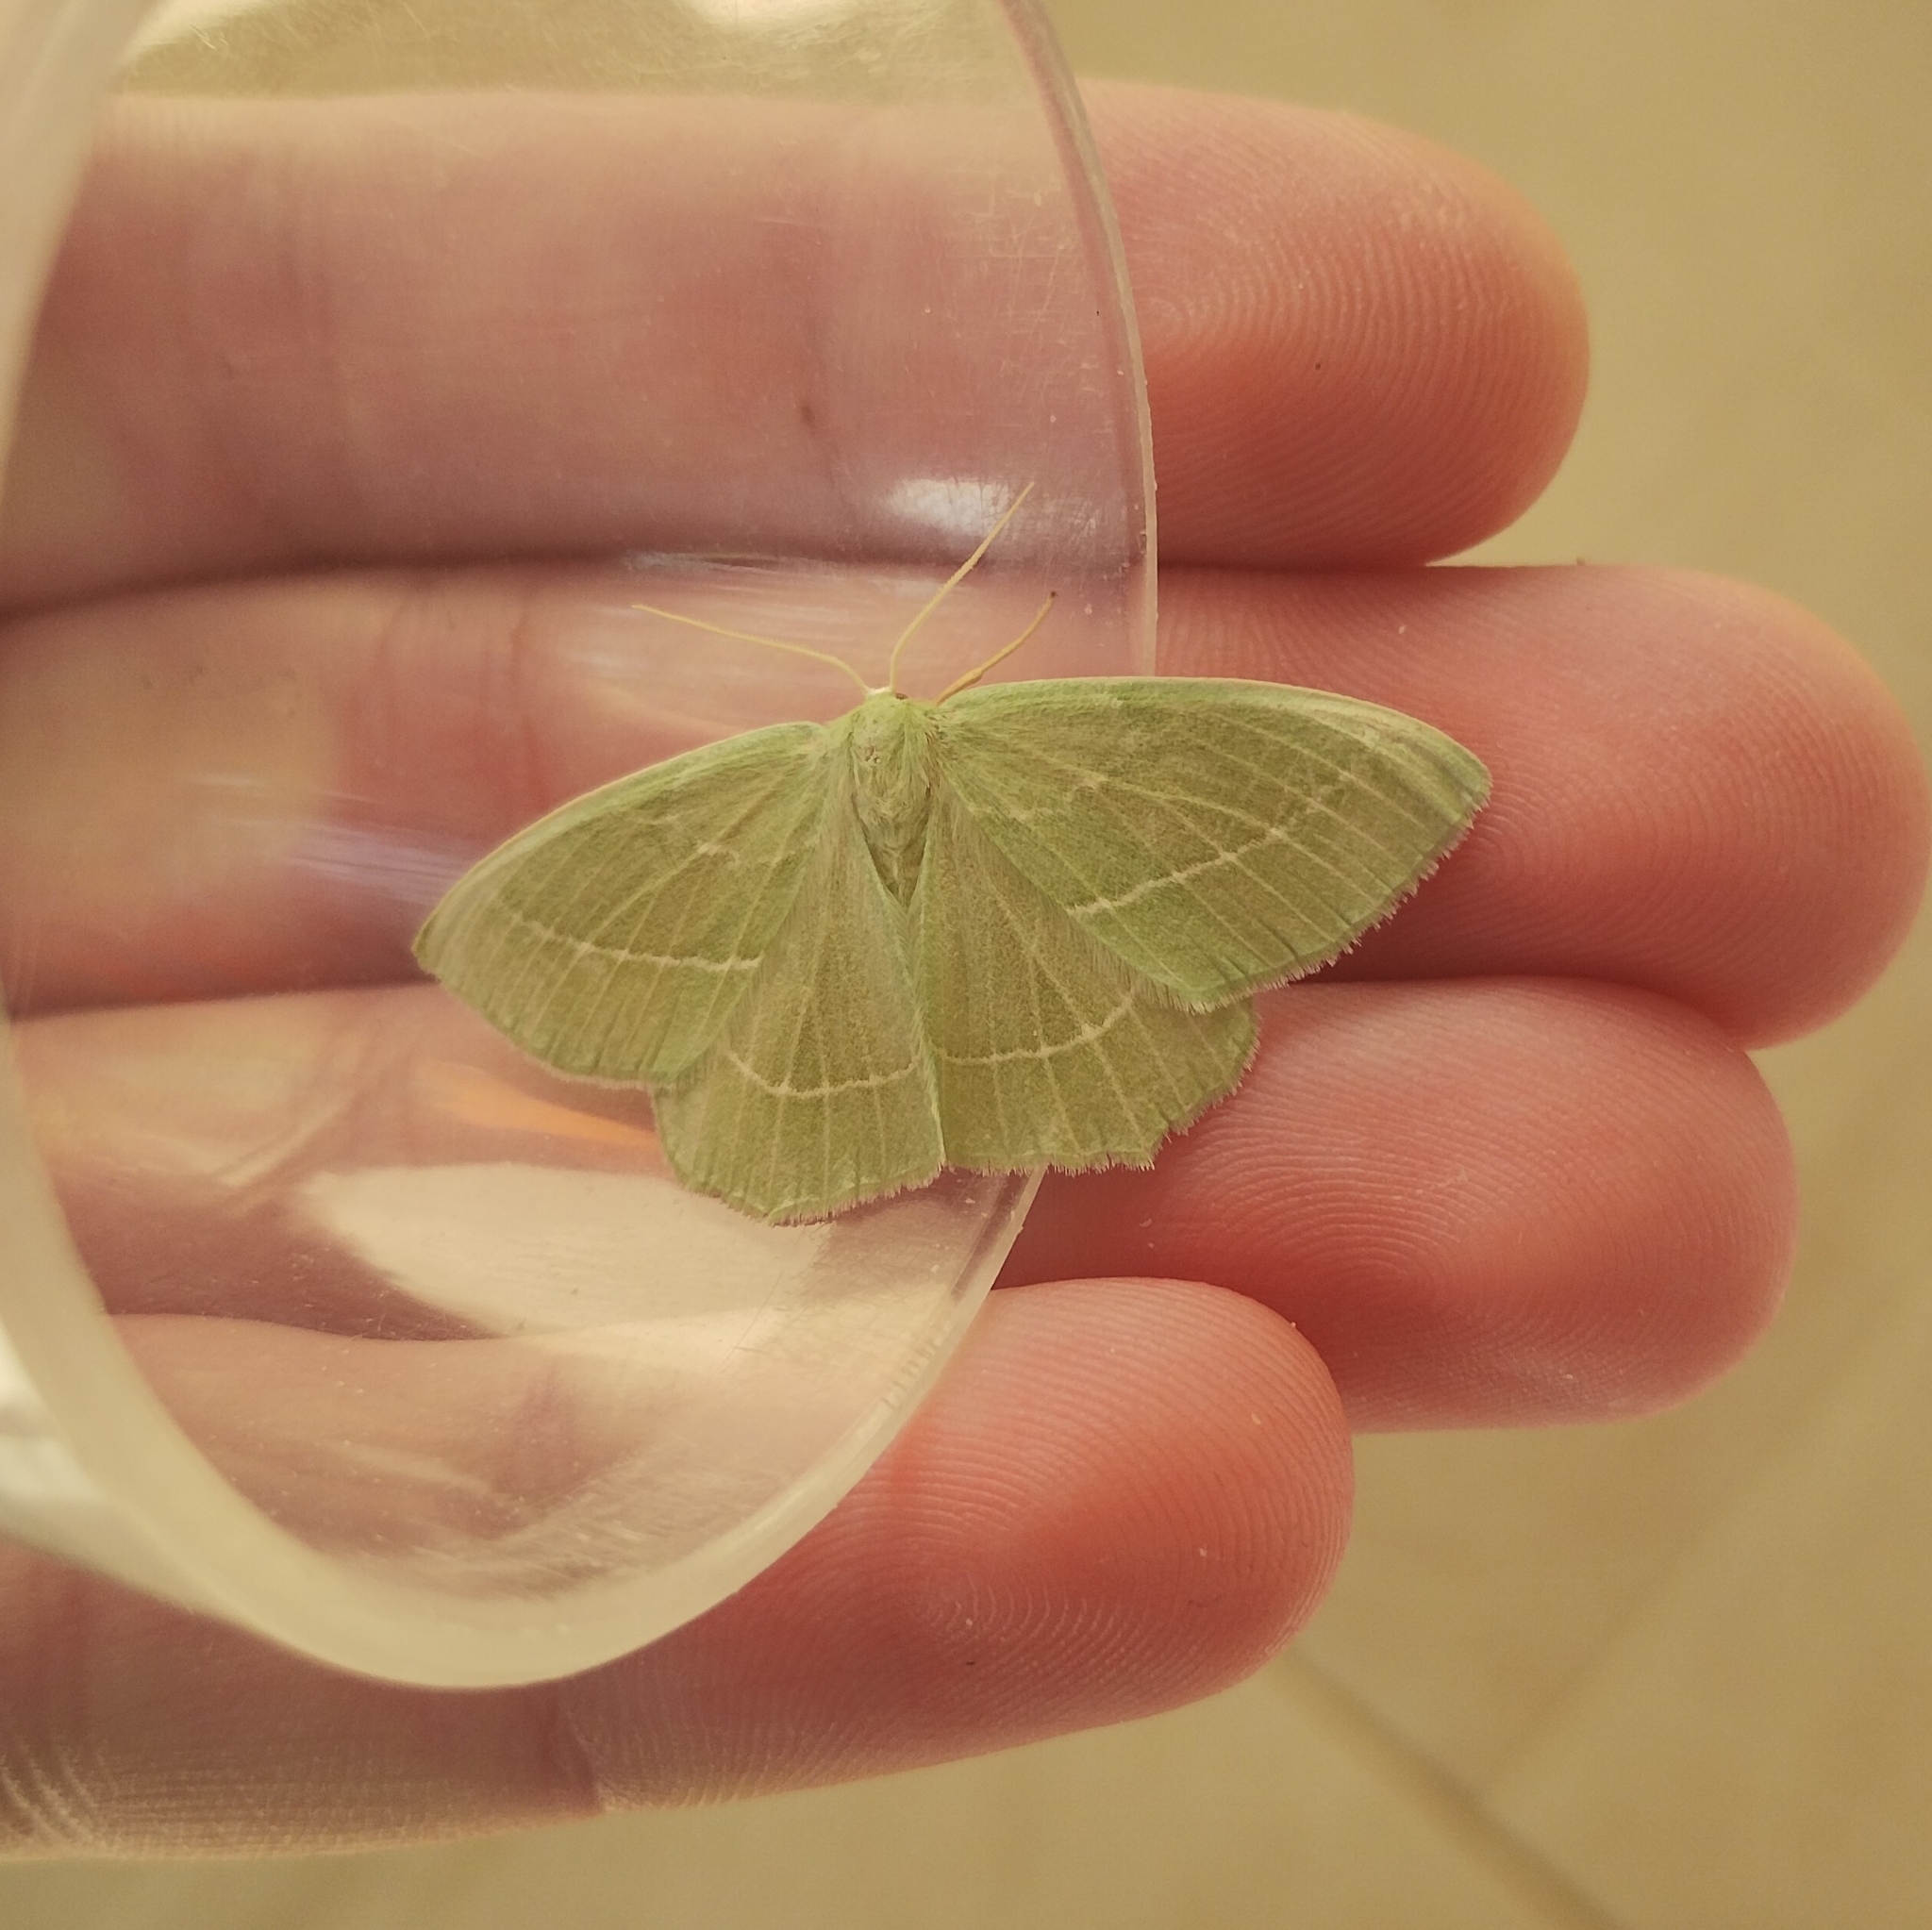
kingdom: Animalia
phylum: Arthropoda
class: Insecta
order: Lepidoptera
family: Geometridae
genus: Hemistola
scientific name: Hemistola chrysoprasaria
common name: Small emerald
